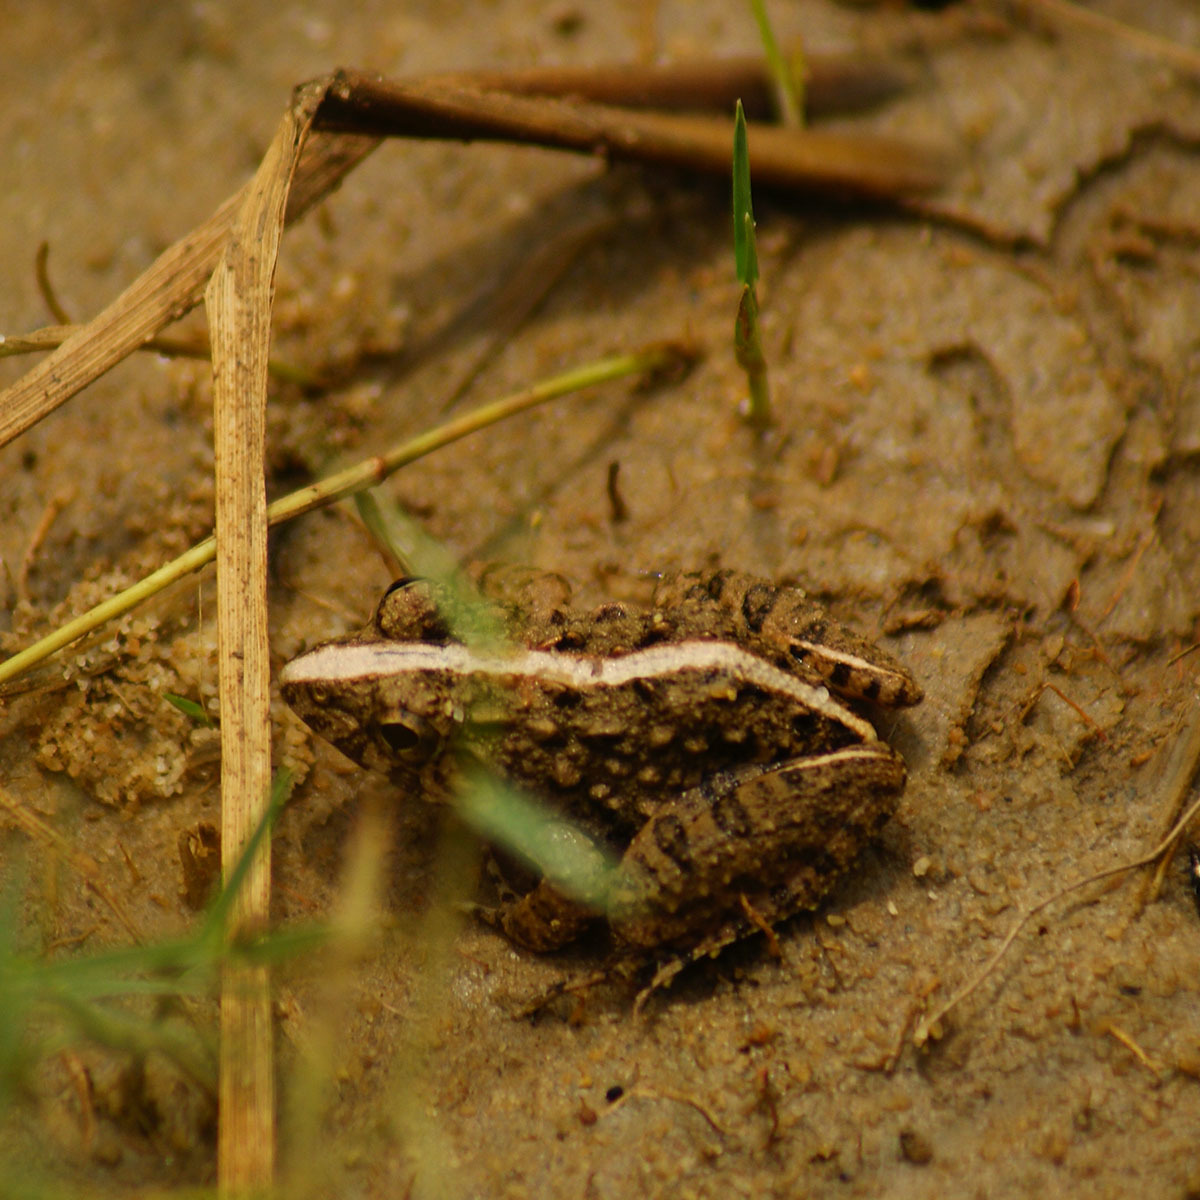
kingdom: Animalia
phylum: Chordata
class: Amphibia
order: Anura
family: Dicroglossidae
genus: Minervarya
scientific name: Minervarya agricola
